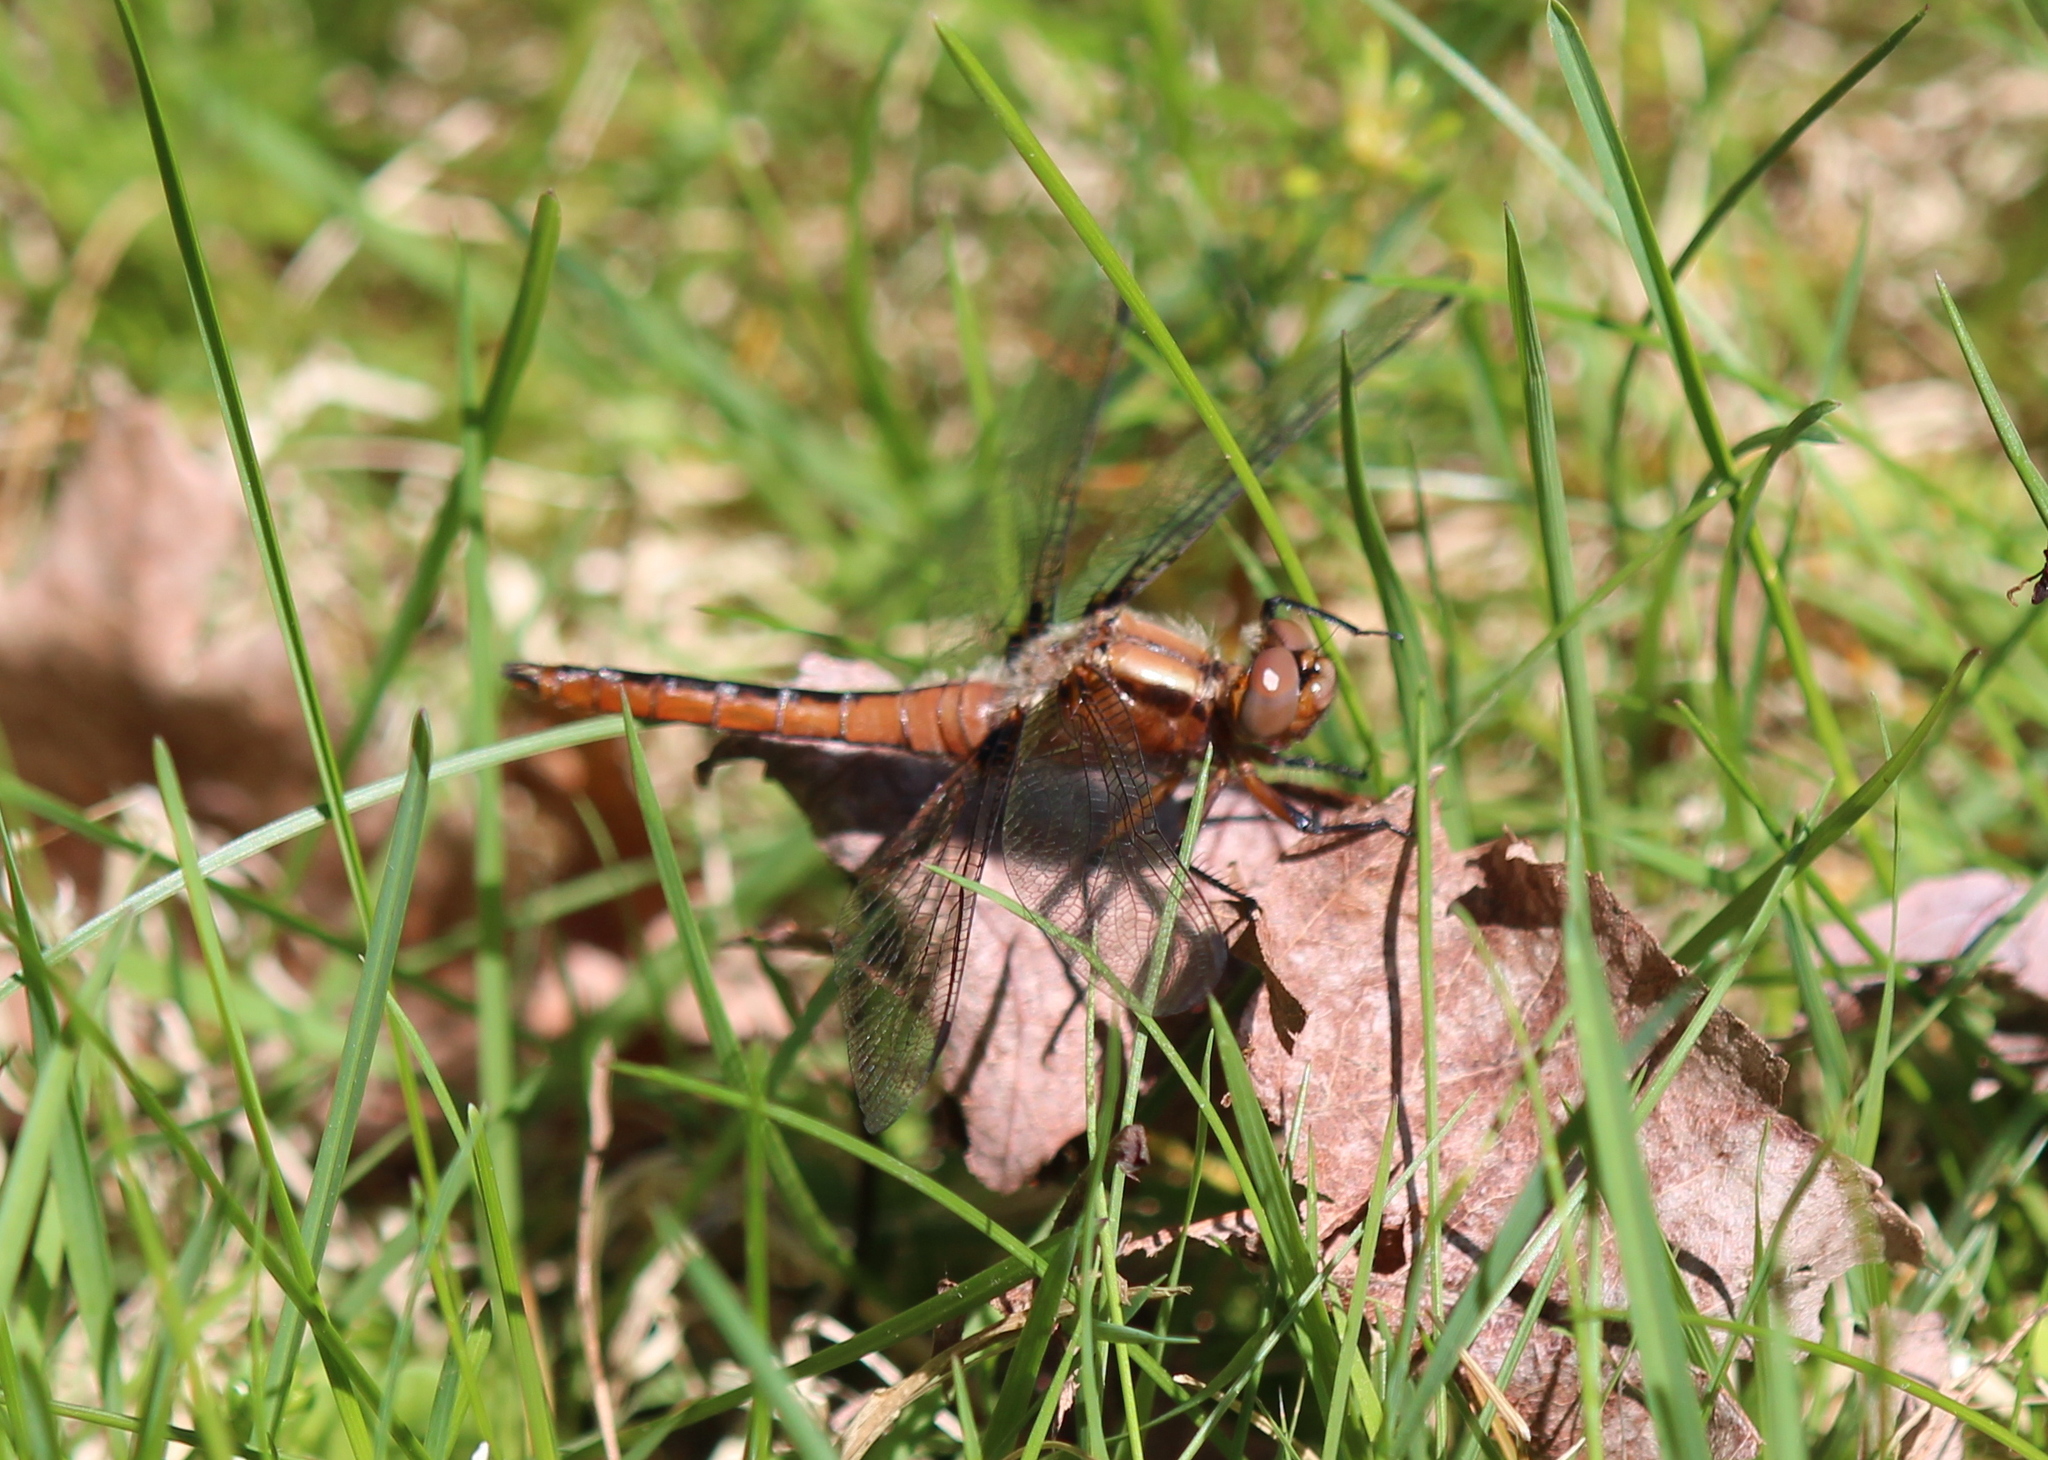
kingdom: Animalia
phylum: Arthropoda
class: Insecta
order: Odonata
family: Libellulidae
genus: Ladona
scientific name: Ladona julia
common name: Chalk-fronted corporal
